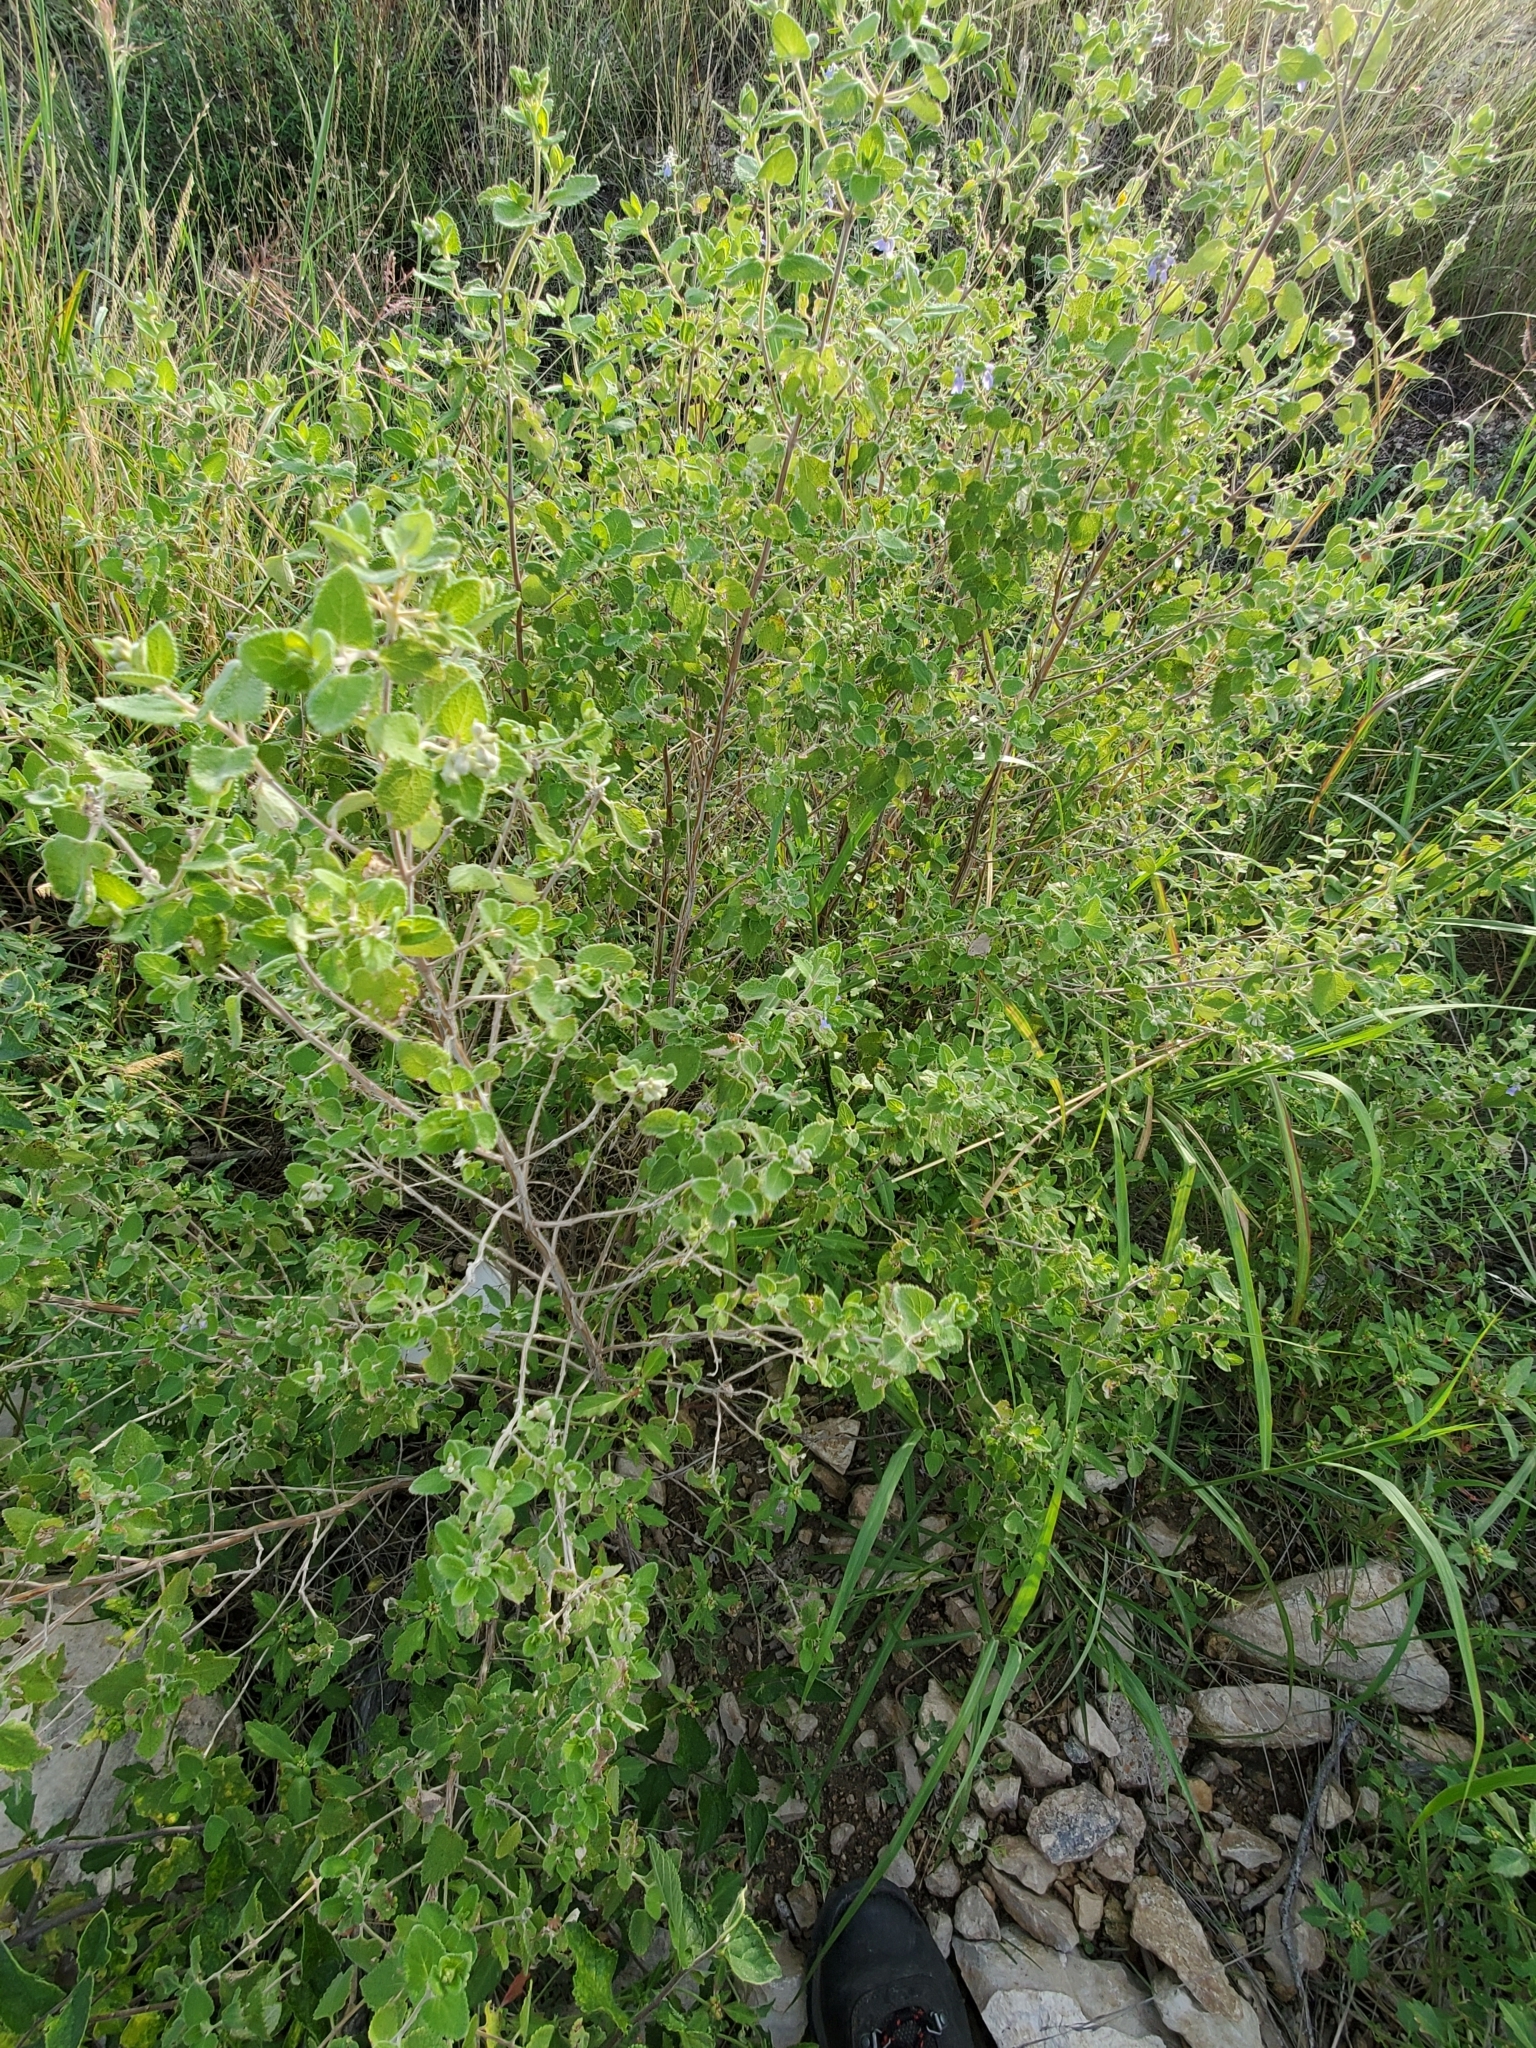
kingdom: Plantae
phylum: Tracheophyta
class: Magnoliopsida
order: Lamiales
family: Lamiaceae
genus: Salvia
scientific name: Salvia ballotiflora
